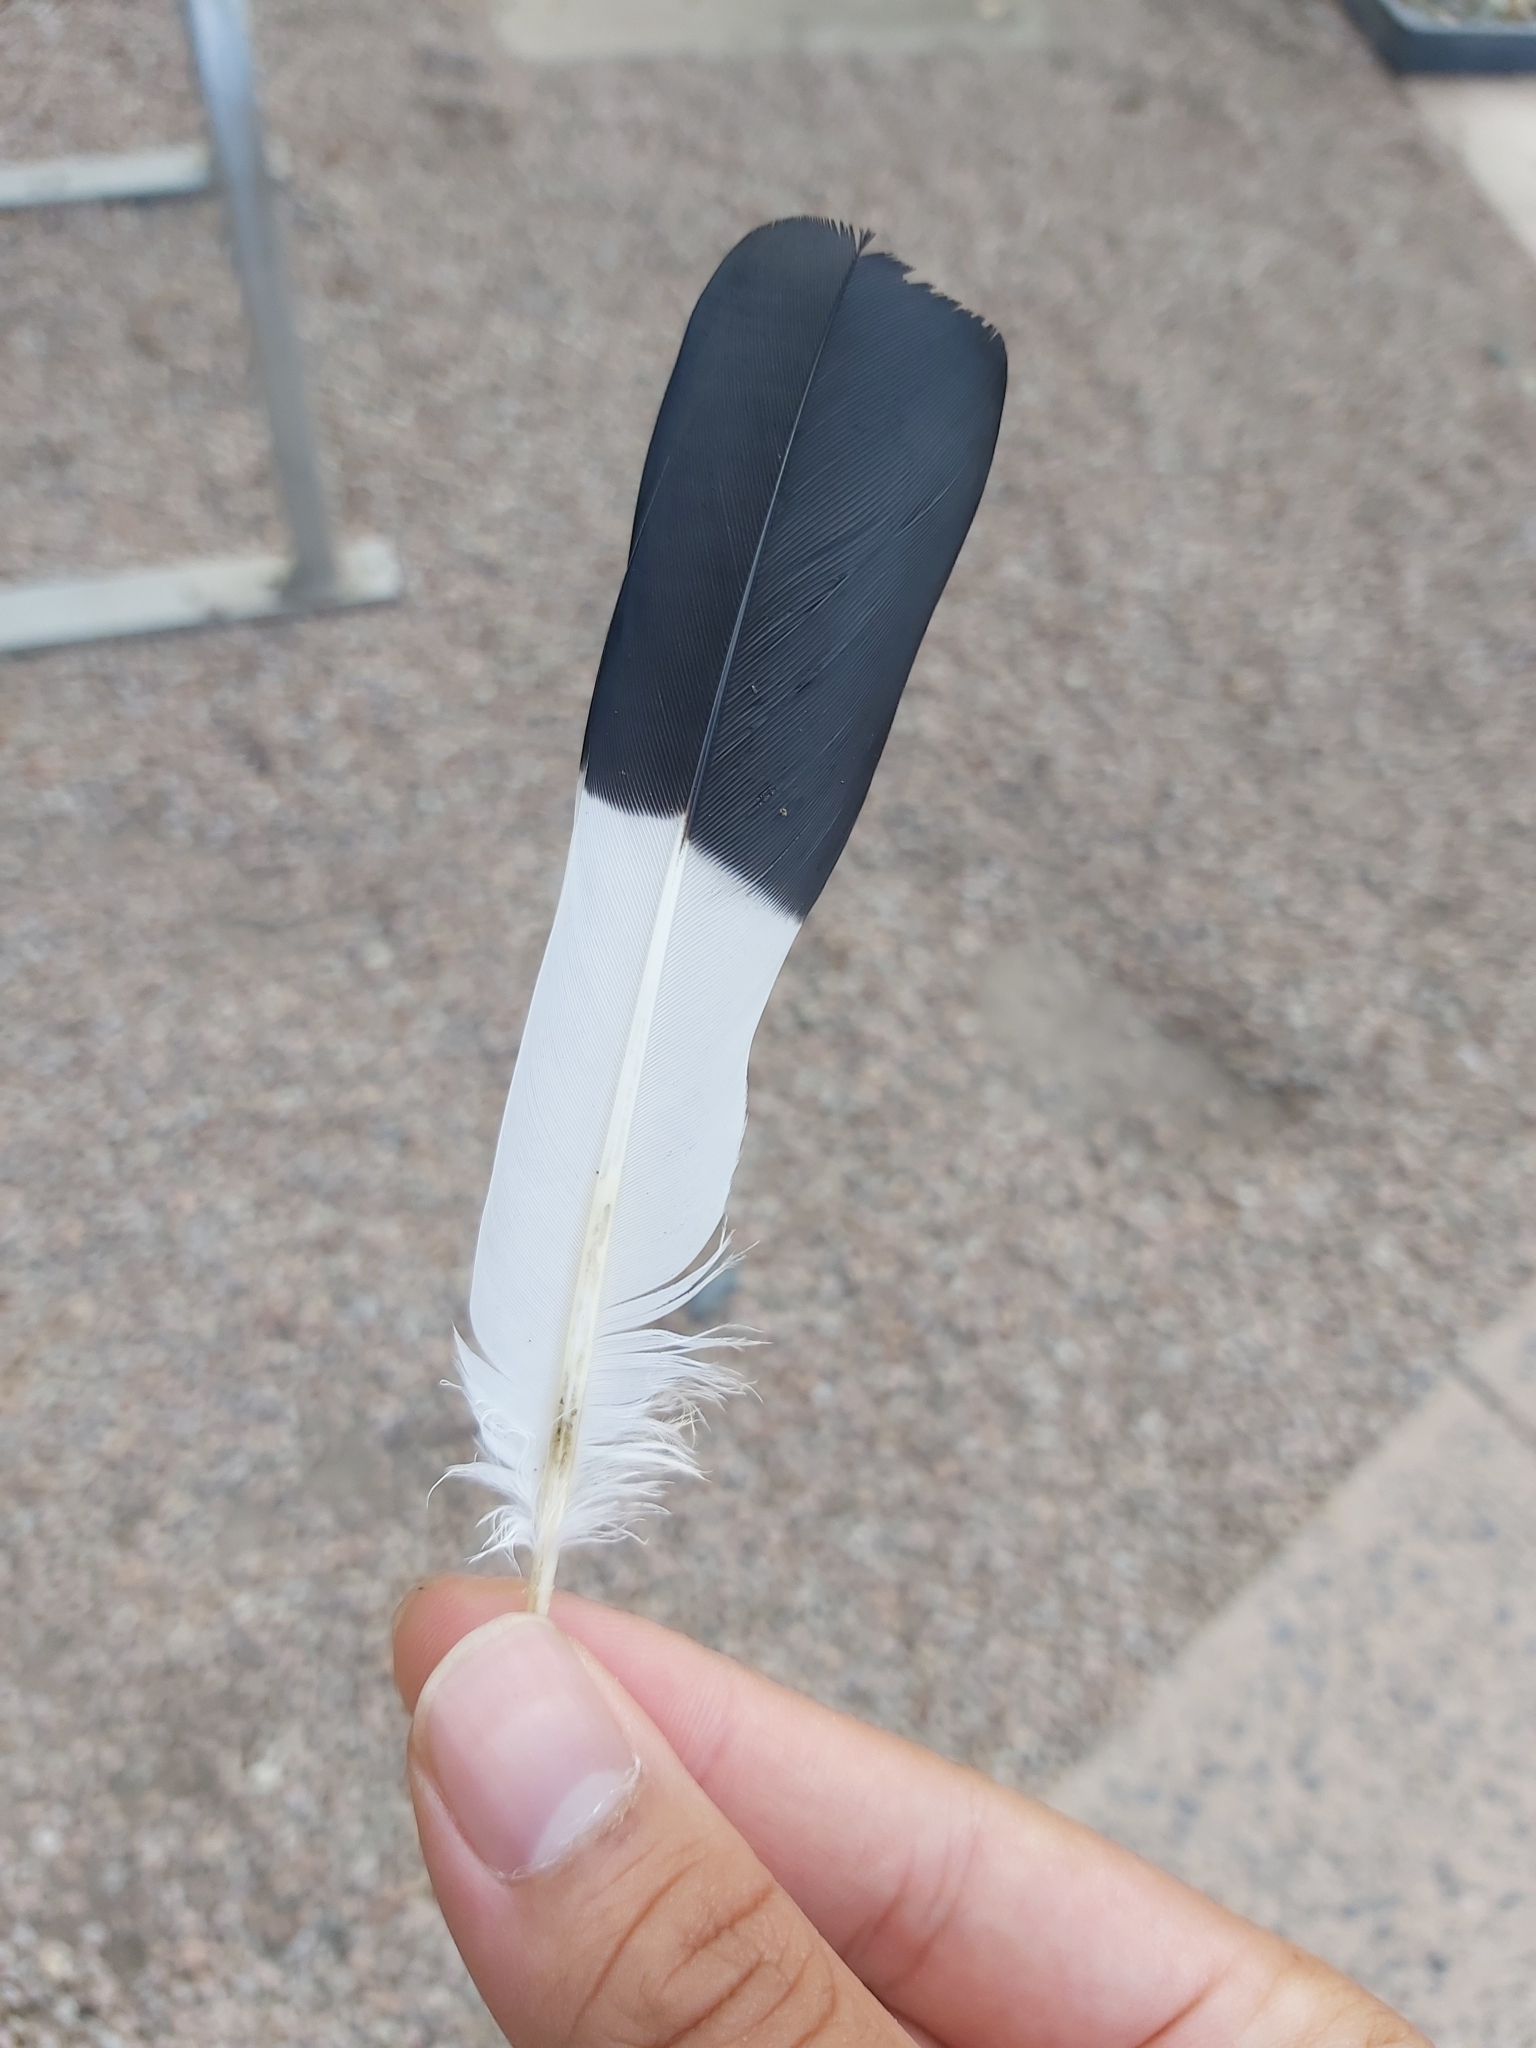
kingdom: Animalia
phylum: Chordata
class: Aves
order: Columbiformes
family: Columbidae
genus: Ducula
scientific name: Ducula spilorrhoa
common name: Torresian imperial pigeon
